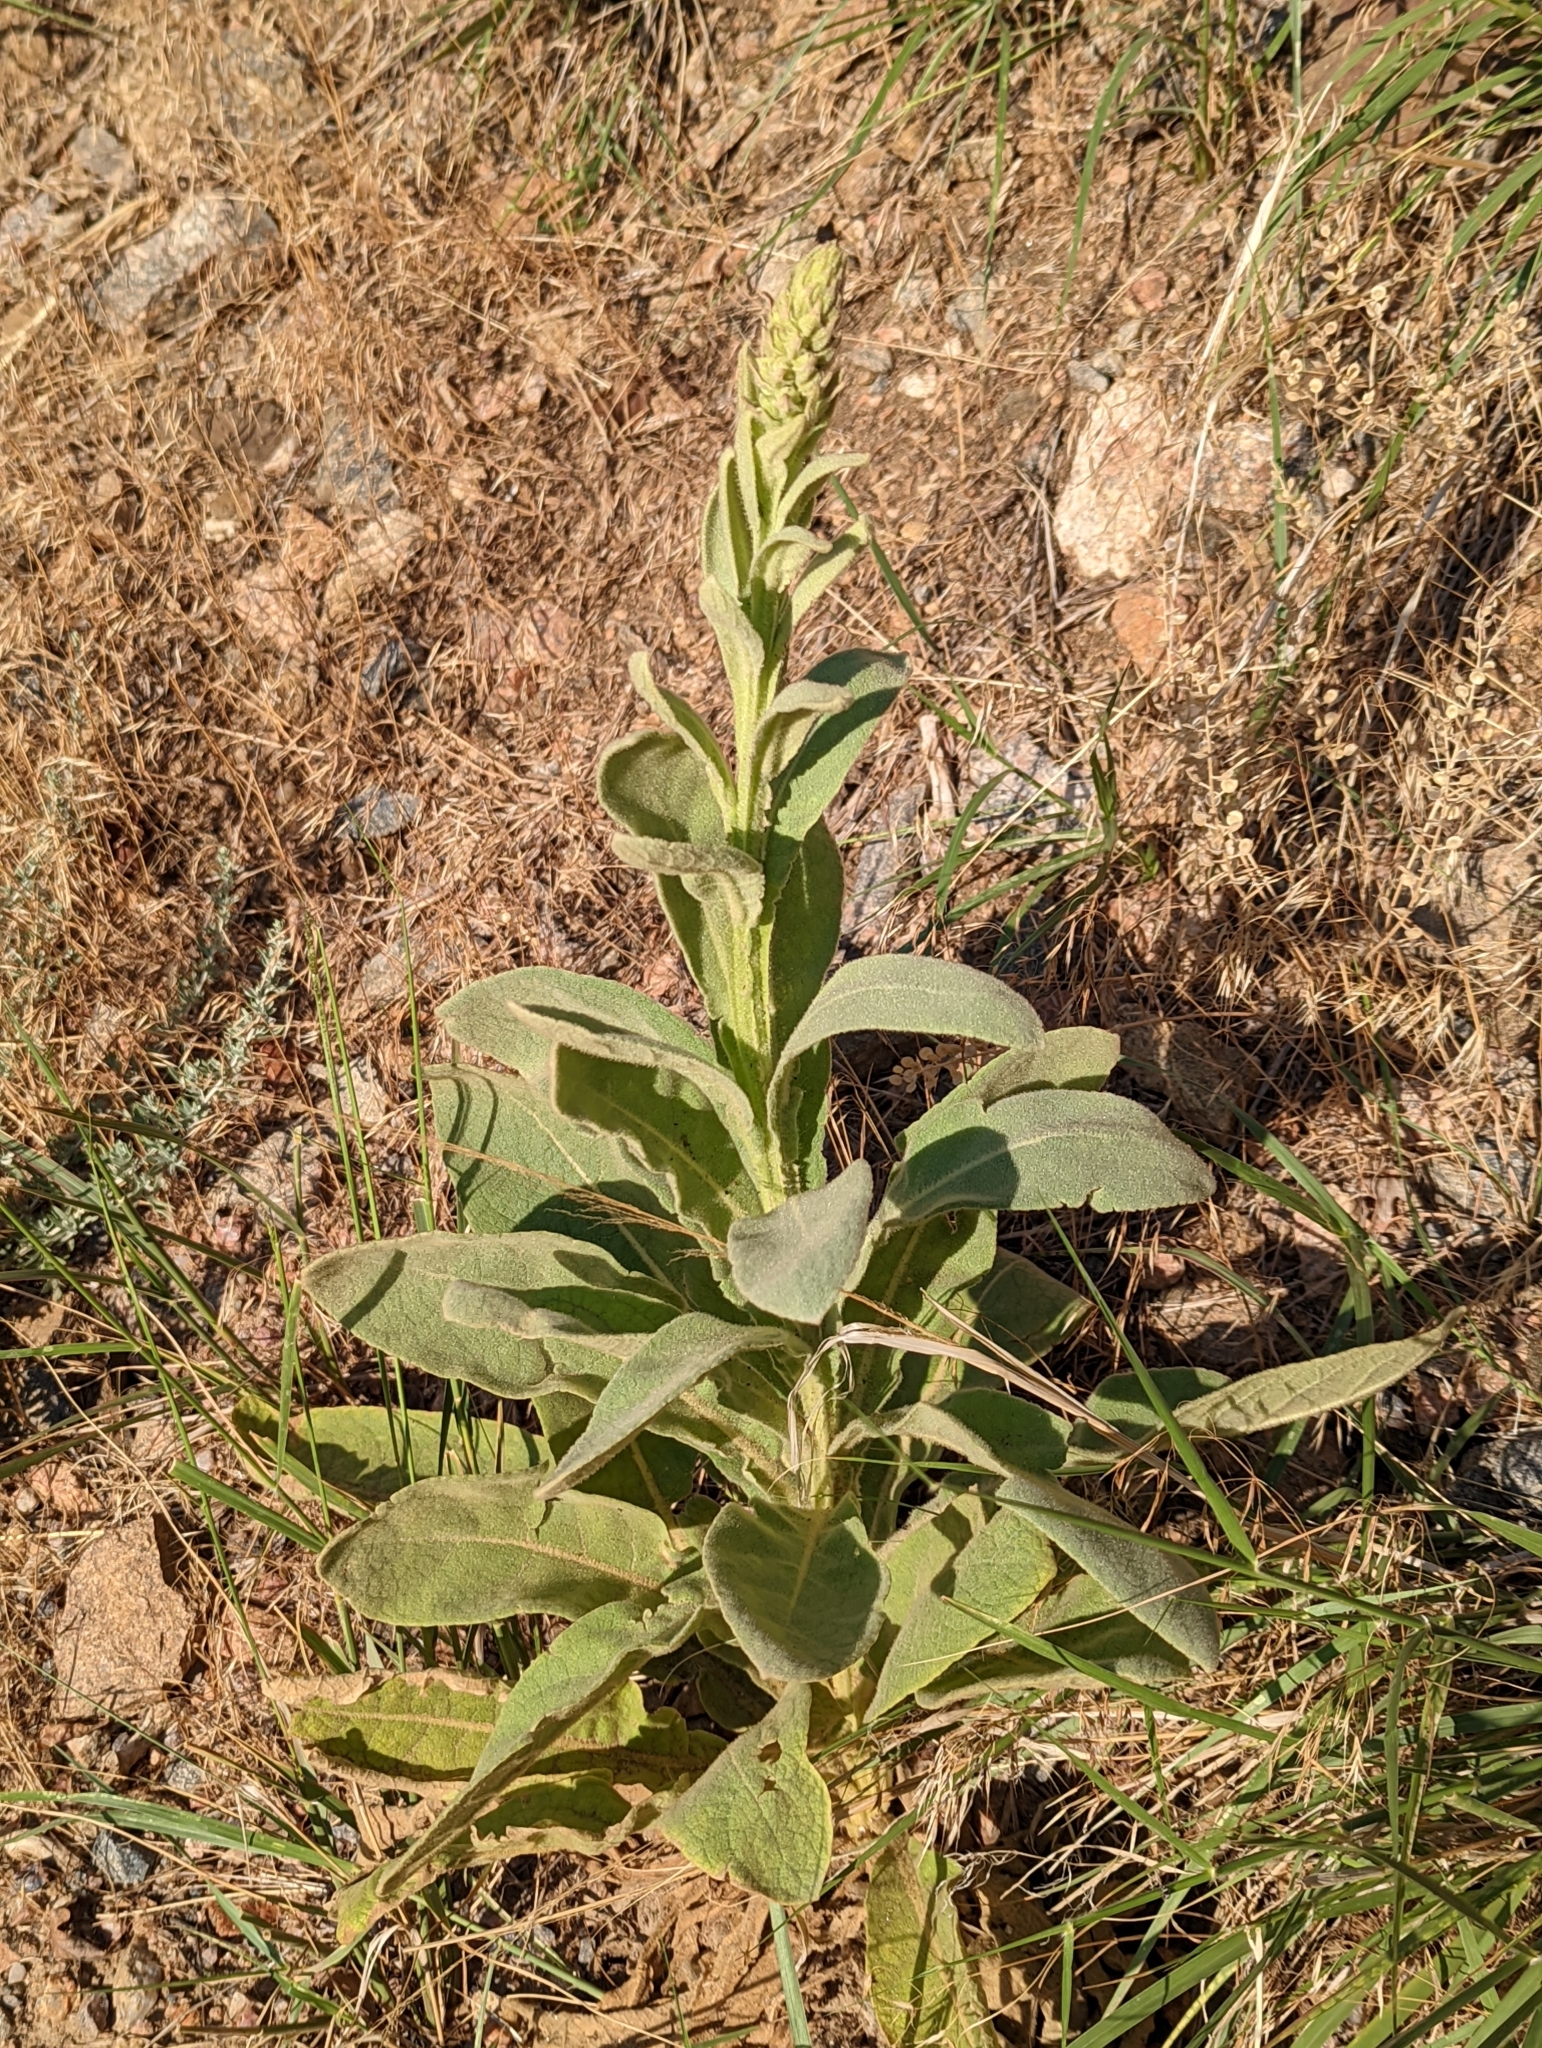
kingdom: Plantae
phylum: Tracheophyta
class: Magnoliopsida
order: Lamiales
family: Scrophulariaceae
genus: Verbascum
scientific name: Verbascum thapsus
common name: Common mullein
